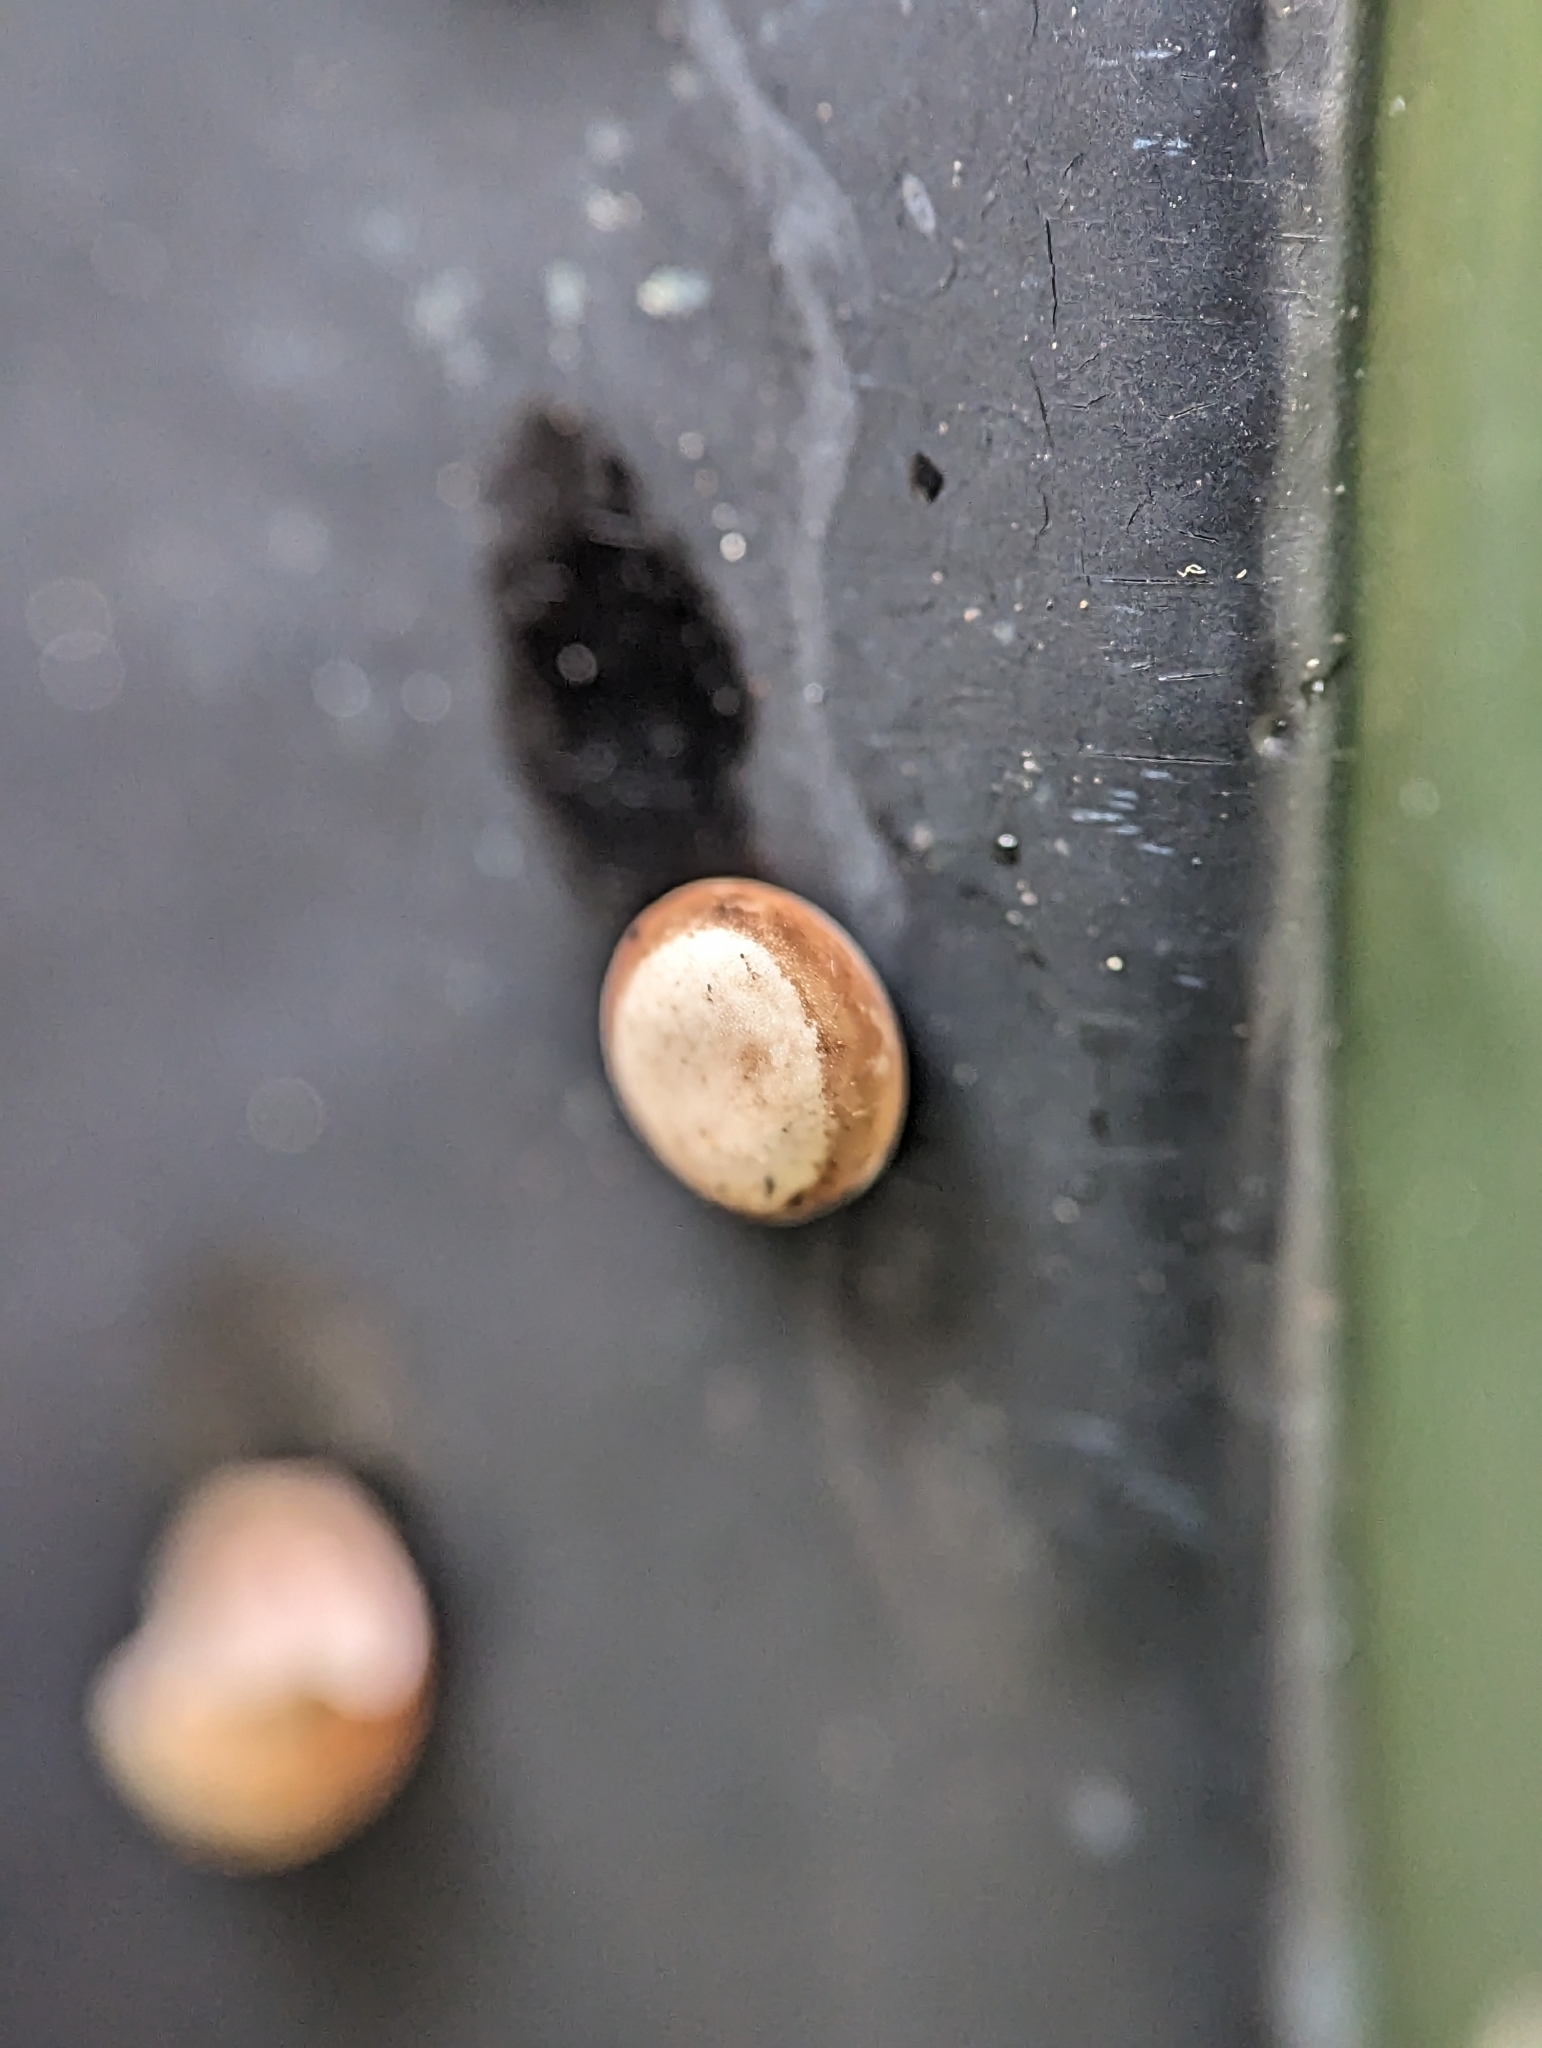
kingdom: Animalia
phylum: Arthropoda
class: Insecta
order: Lepidoptera
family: Saturniidae
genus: Antheraea
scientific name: Antheraea polyphemus
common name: Polyphemus moth
